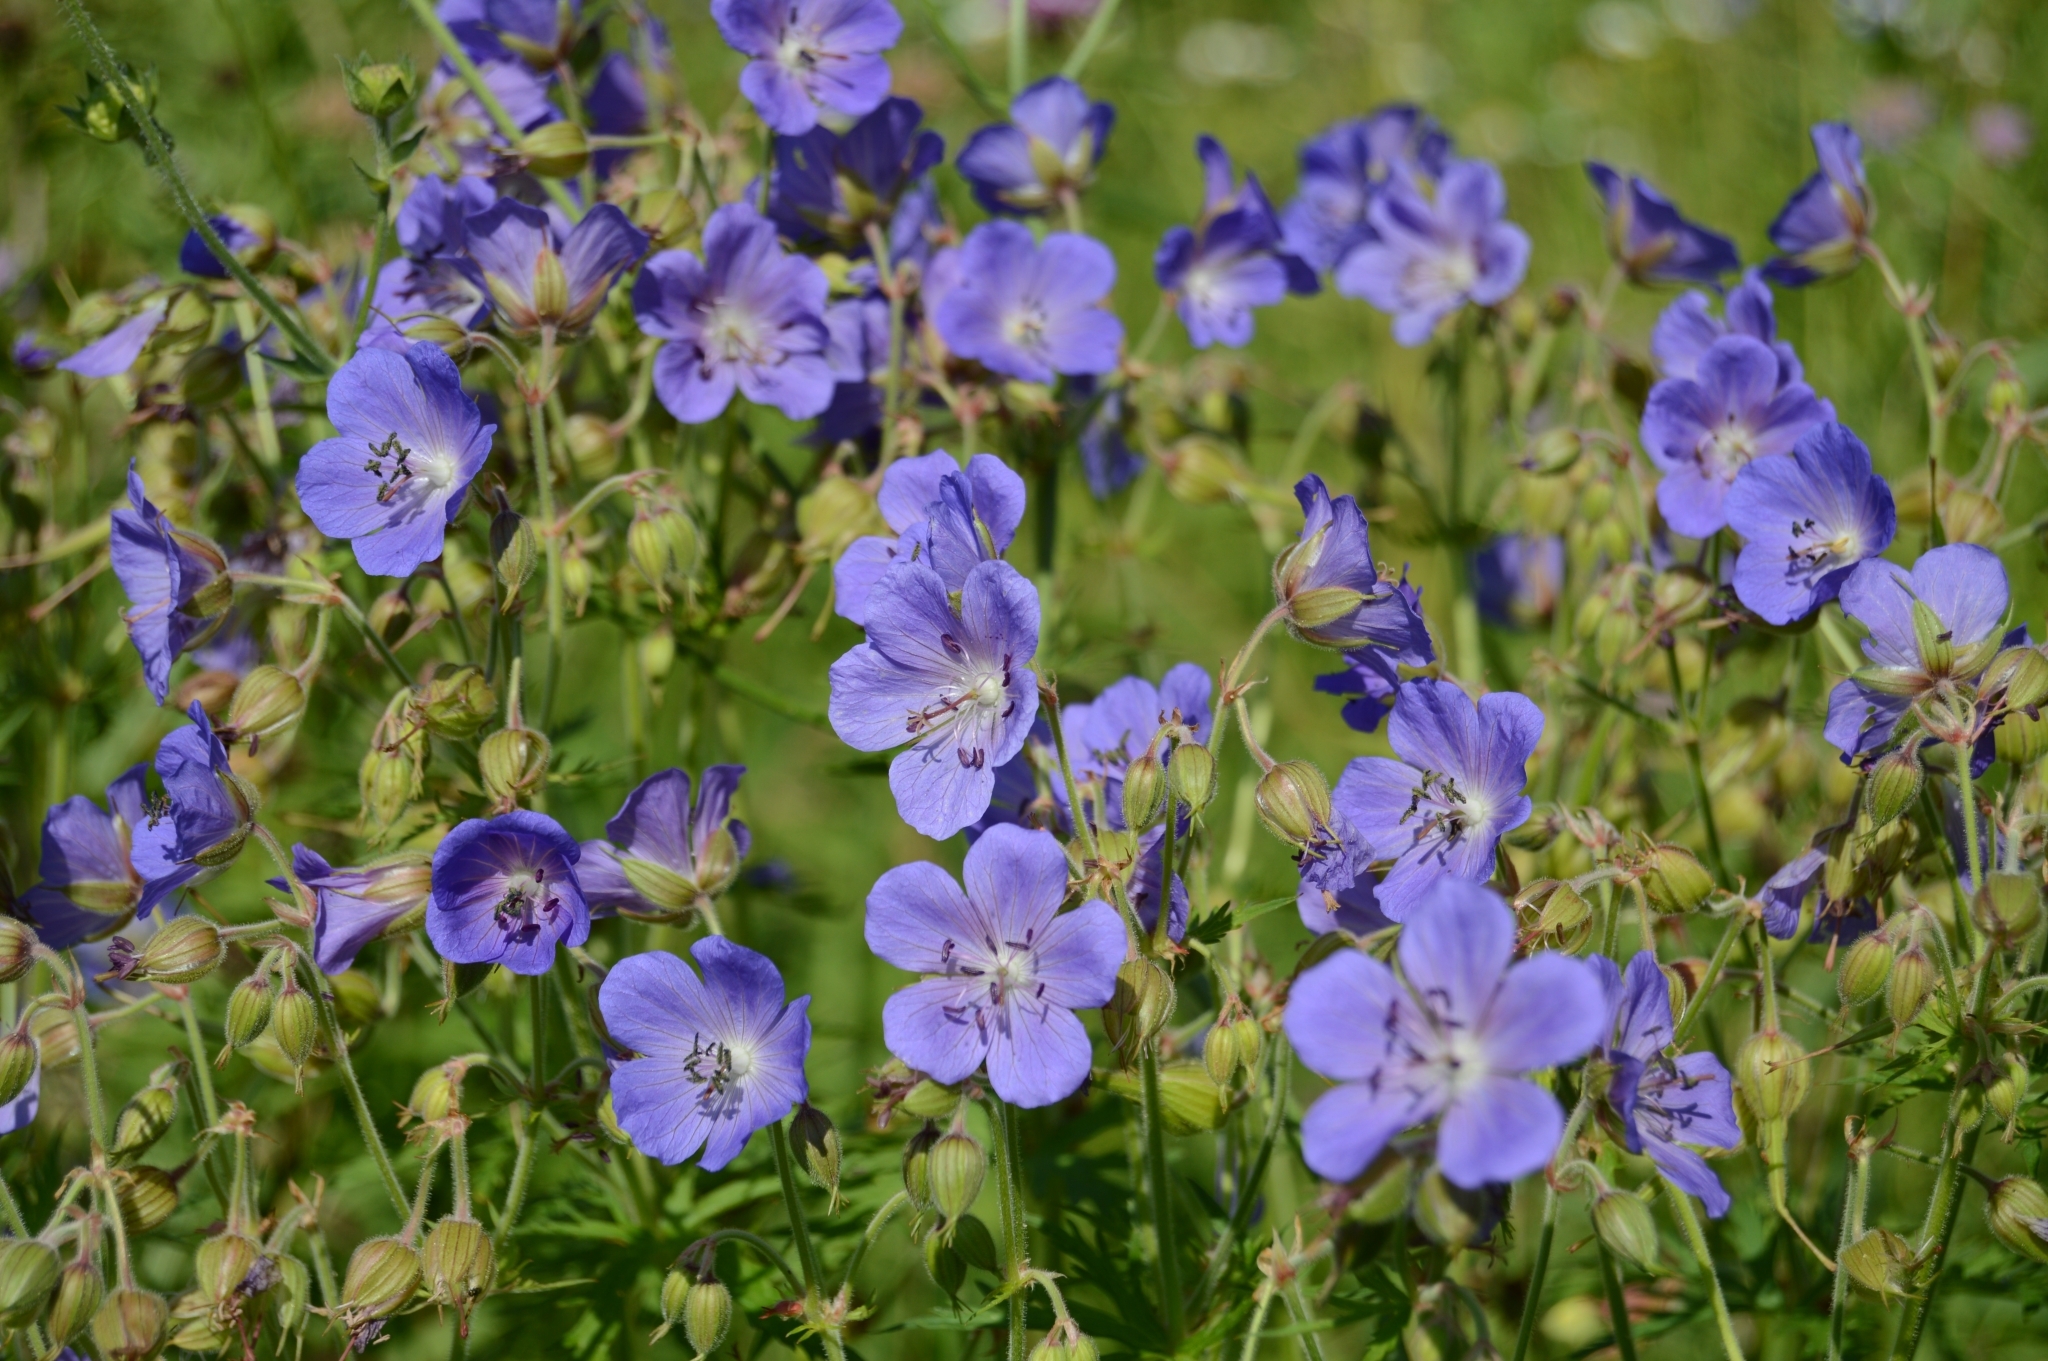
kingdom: Plantae
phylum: Tracheophyta
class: Magnoliopsida
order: Geraniales
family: Geraniaceae
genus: Geranium
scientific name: Geranium pratense
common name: Meadow crane's-bill
